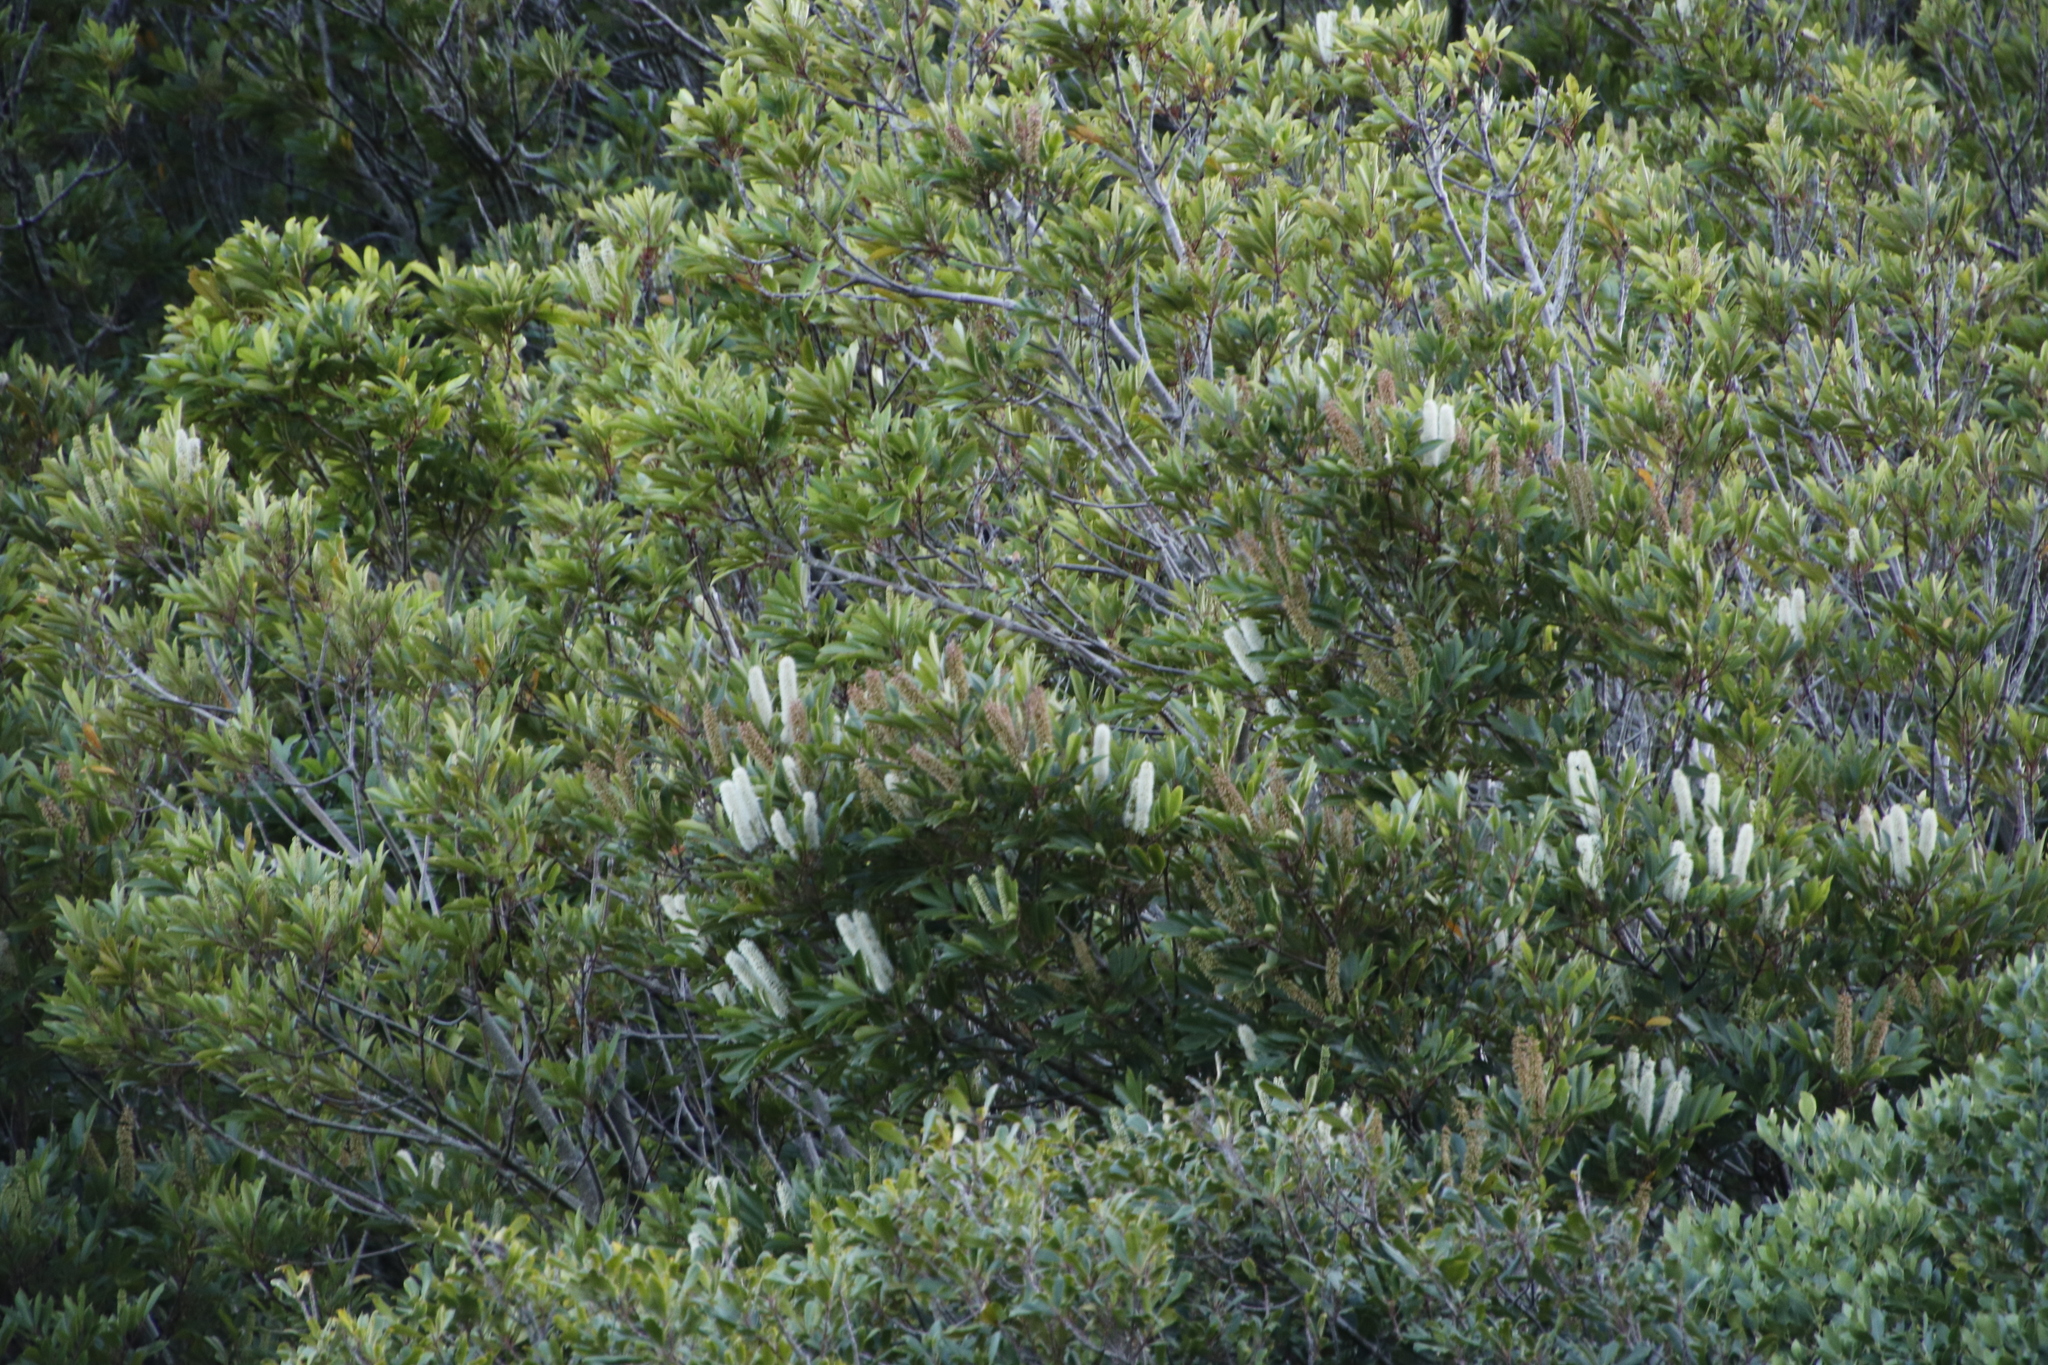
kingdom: Plantae
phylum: Tracheophyta
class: Magnoliopsida
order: Oxalidales
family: Cunoniaceae
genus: Cunonia
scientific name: Cunonia capensis
